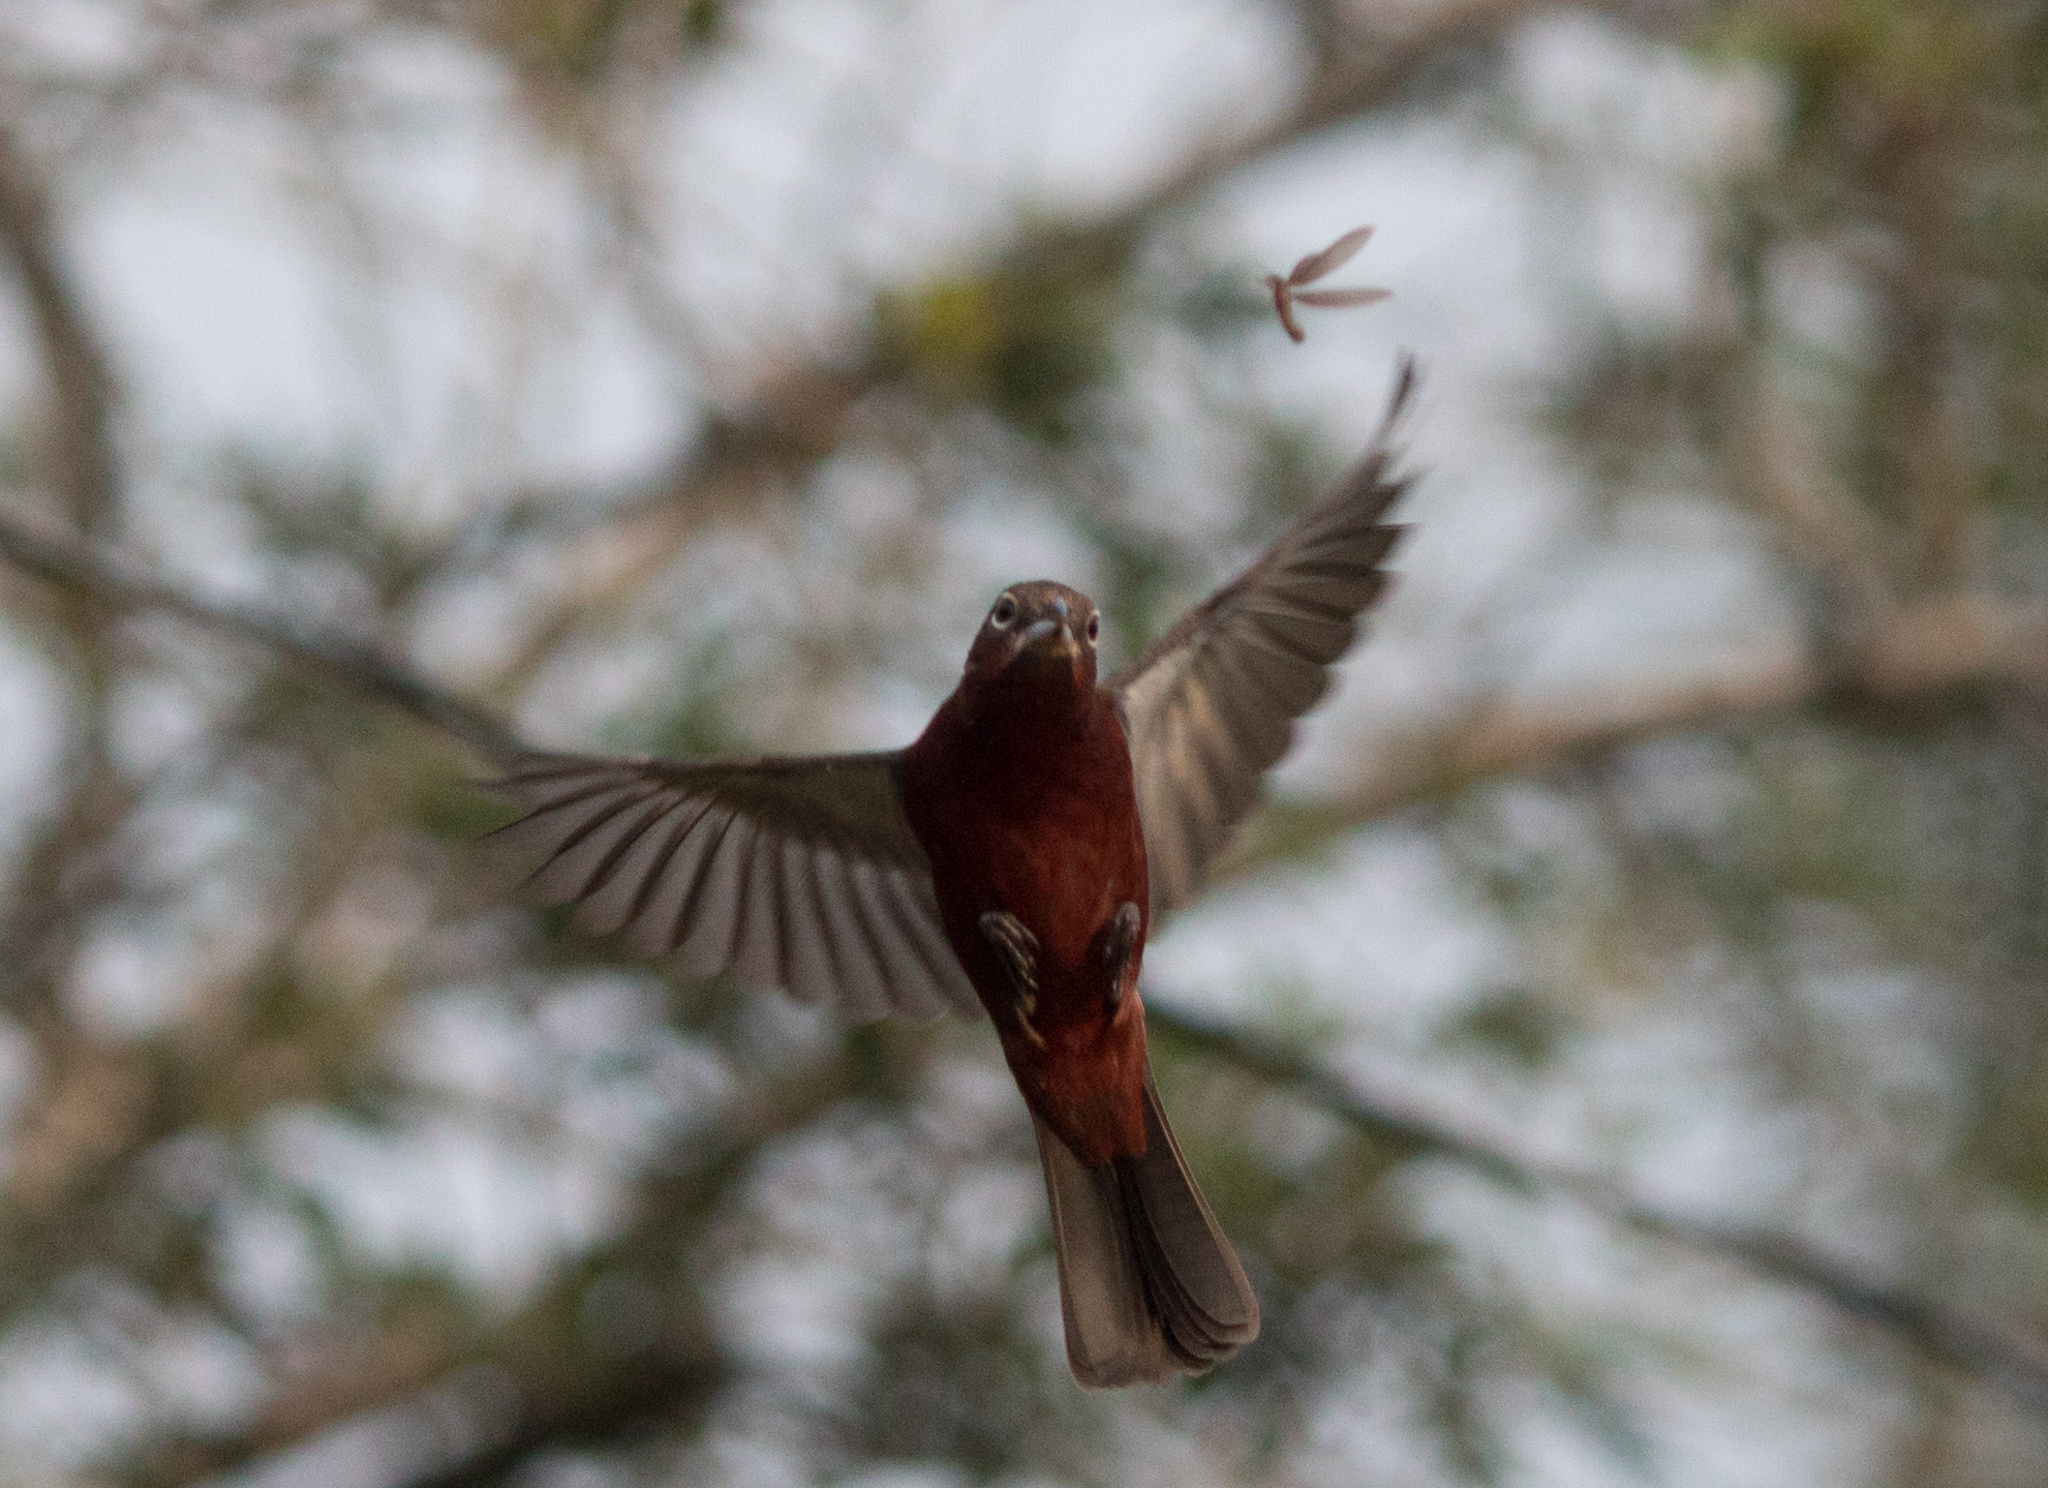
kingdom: Animalia
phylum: Chordata
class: Aves
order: Passeriformes
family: Thraupidae
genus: Coryphospingus
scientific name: Coryphospingus cucullatus
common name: Red pileated finch
